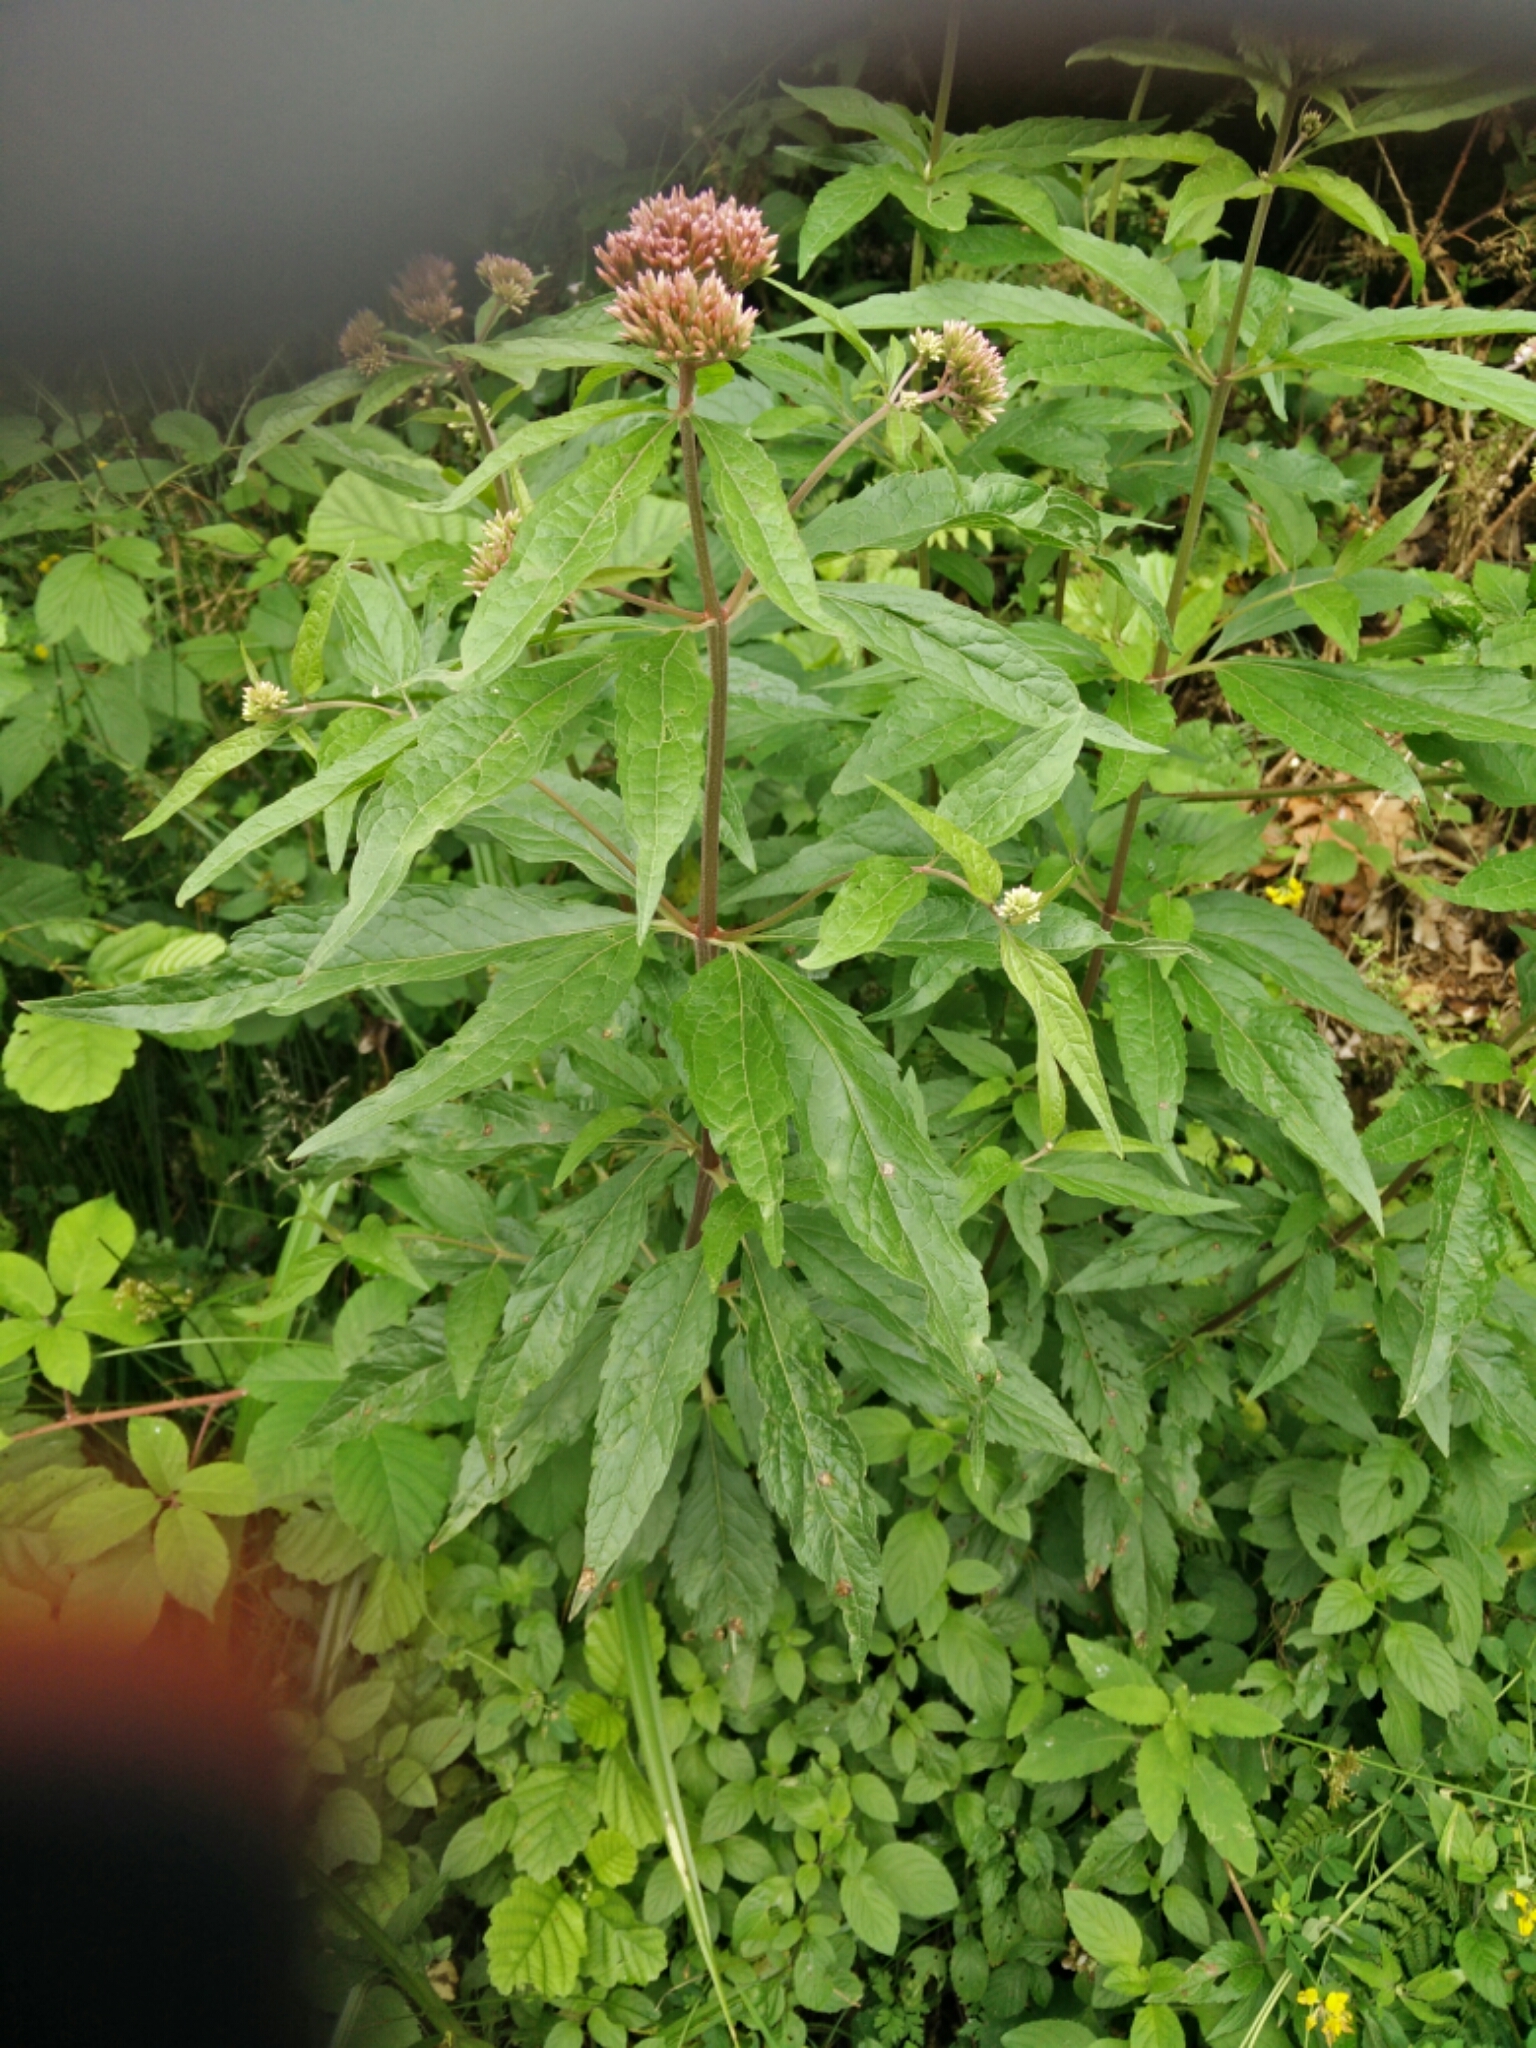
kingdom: Plantae
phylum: Tracheophyta
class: Magnoliopsida
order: Asterales
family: Asteraceae
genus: Eupatorium
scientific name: Eupatorium cannabinum
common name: Hemp-agrimony
